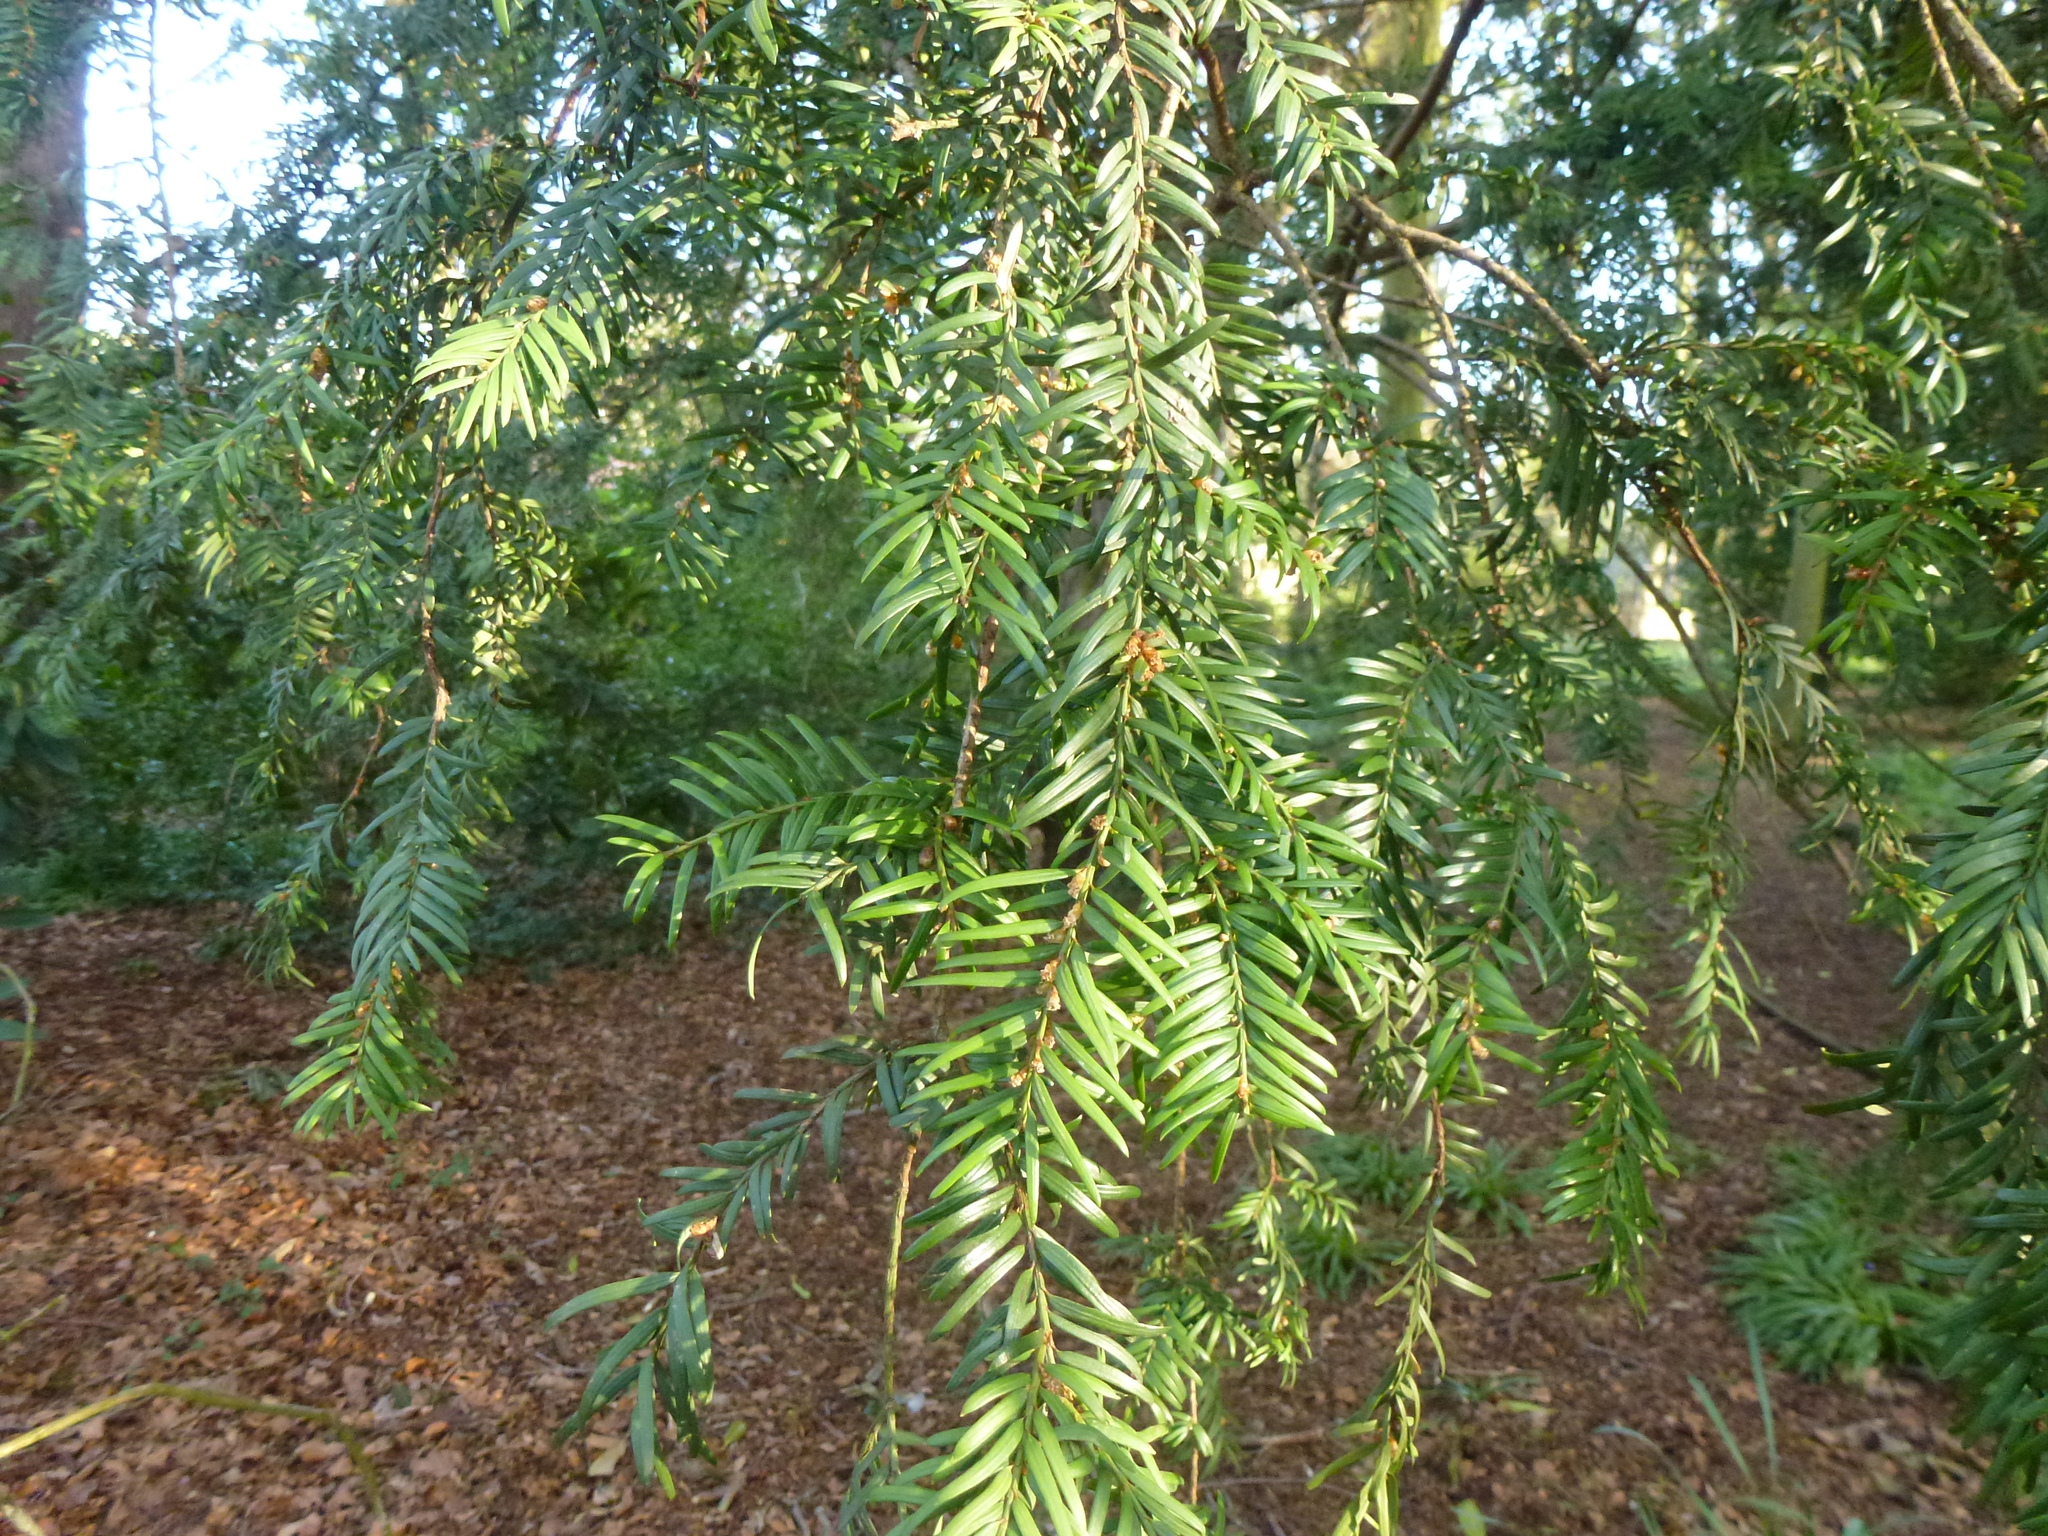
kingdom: Plantae
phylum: Tracheophyta
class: Pinopsida
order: Pinales
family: Taxaceae
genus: Taxus
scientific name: Taxus baccata
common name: Yew
